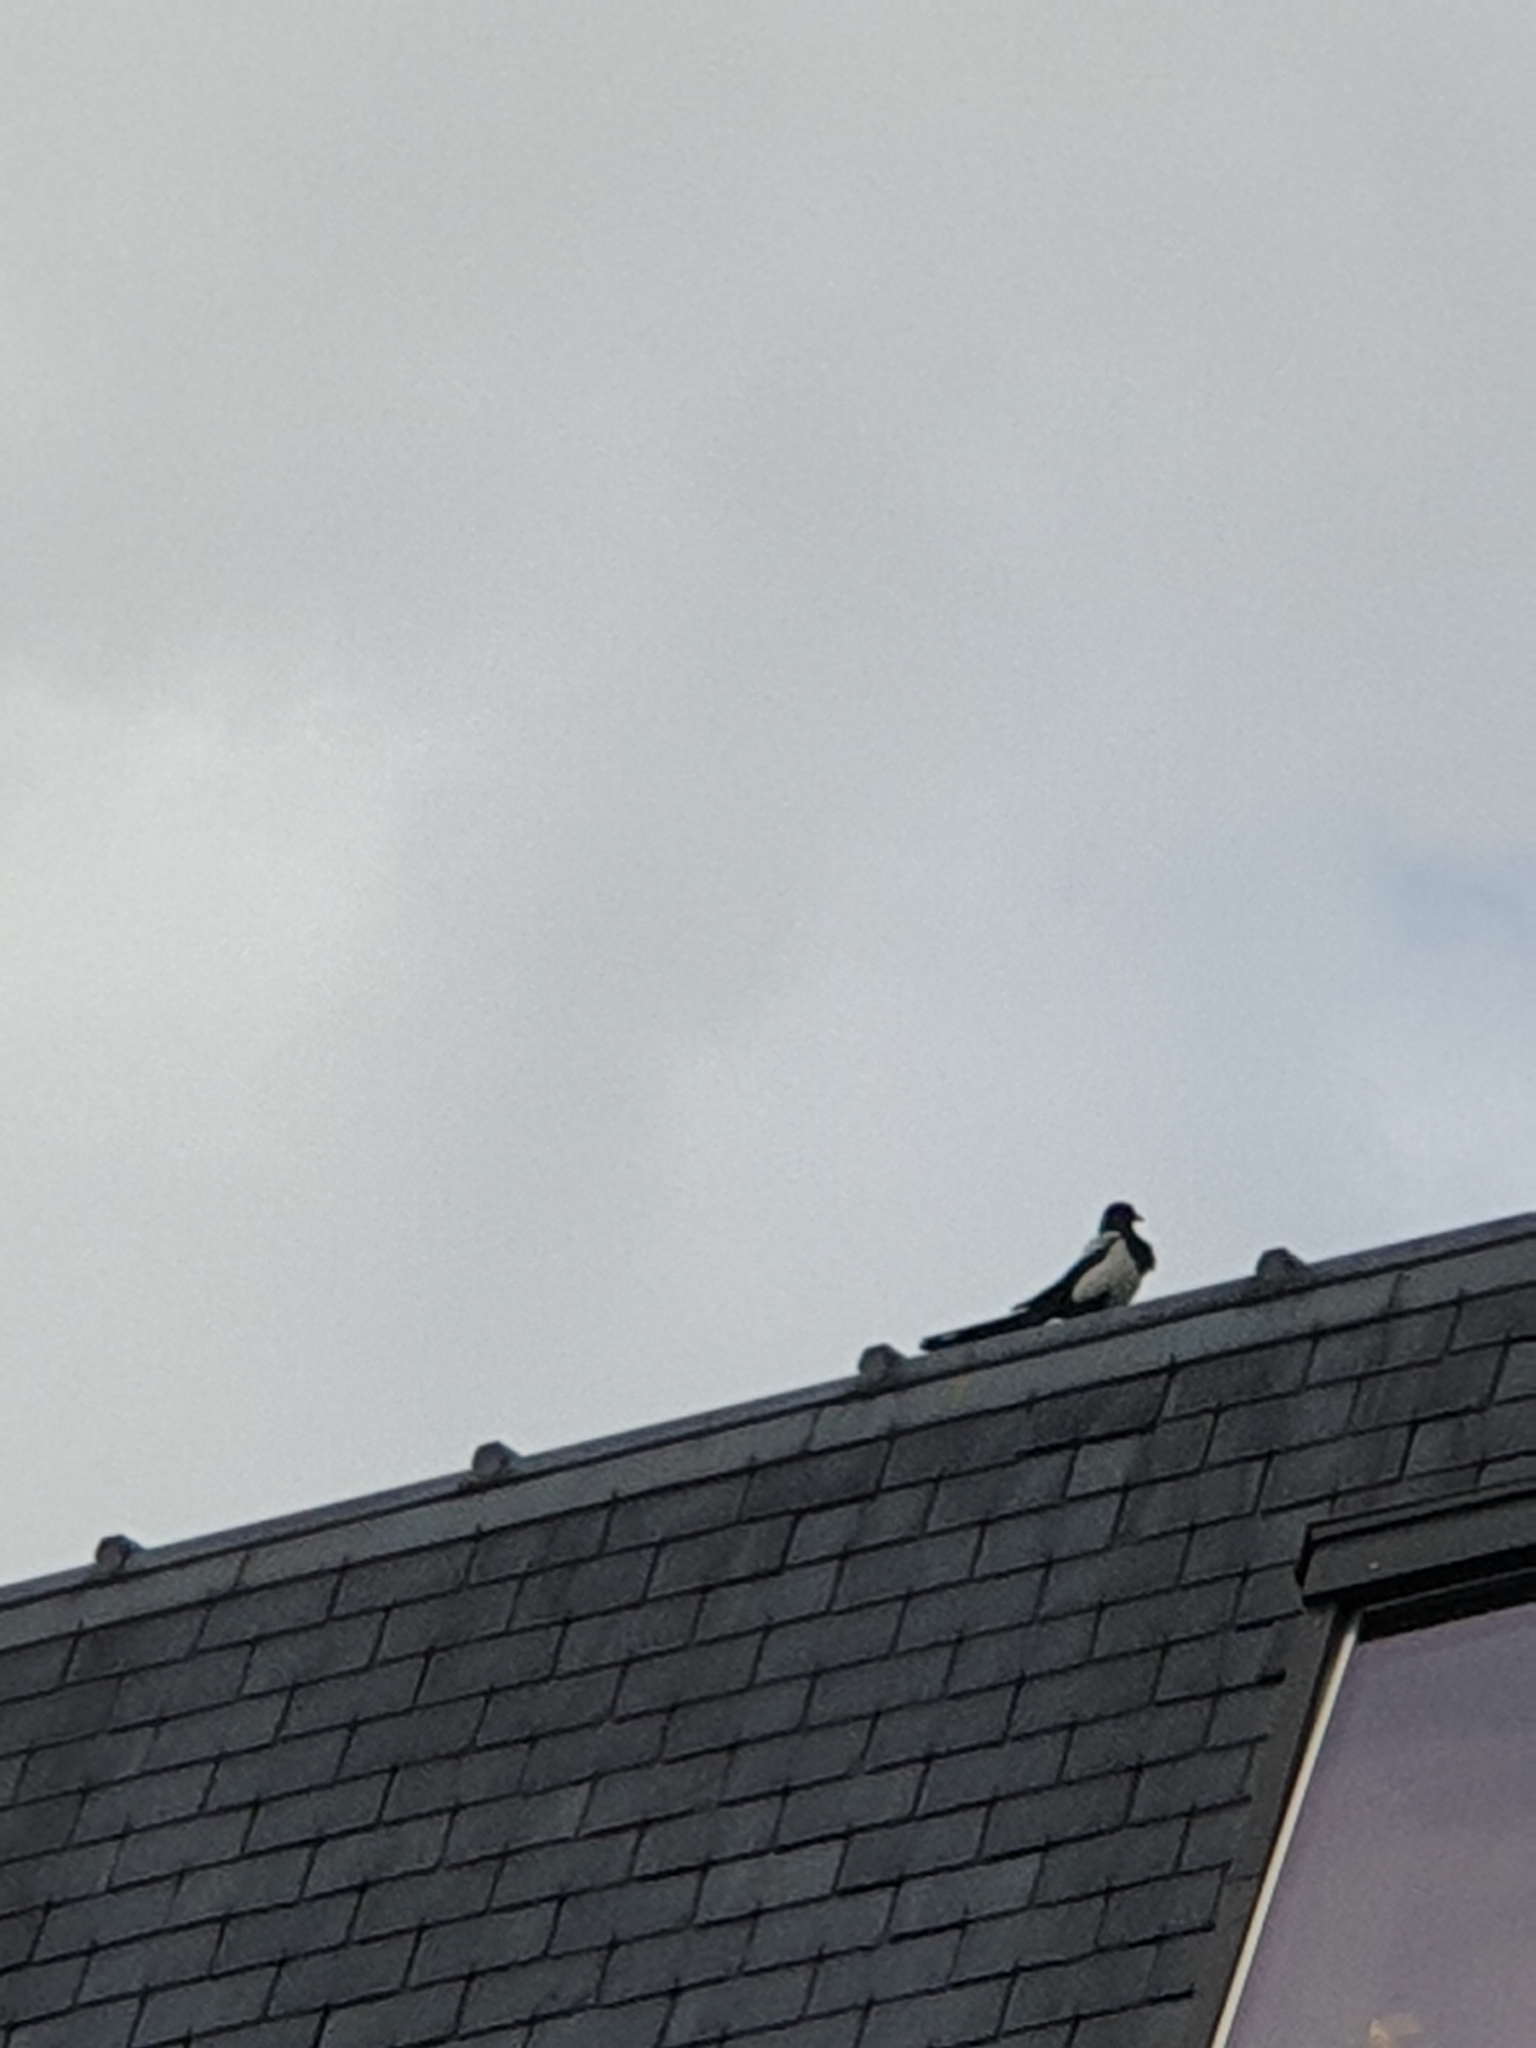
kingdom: Animalia
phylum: Chordata
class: Aves
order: Passeriformes
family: Corvidae
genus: Pica
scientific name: Pica pica
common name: Eurasian magpie
